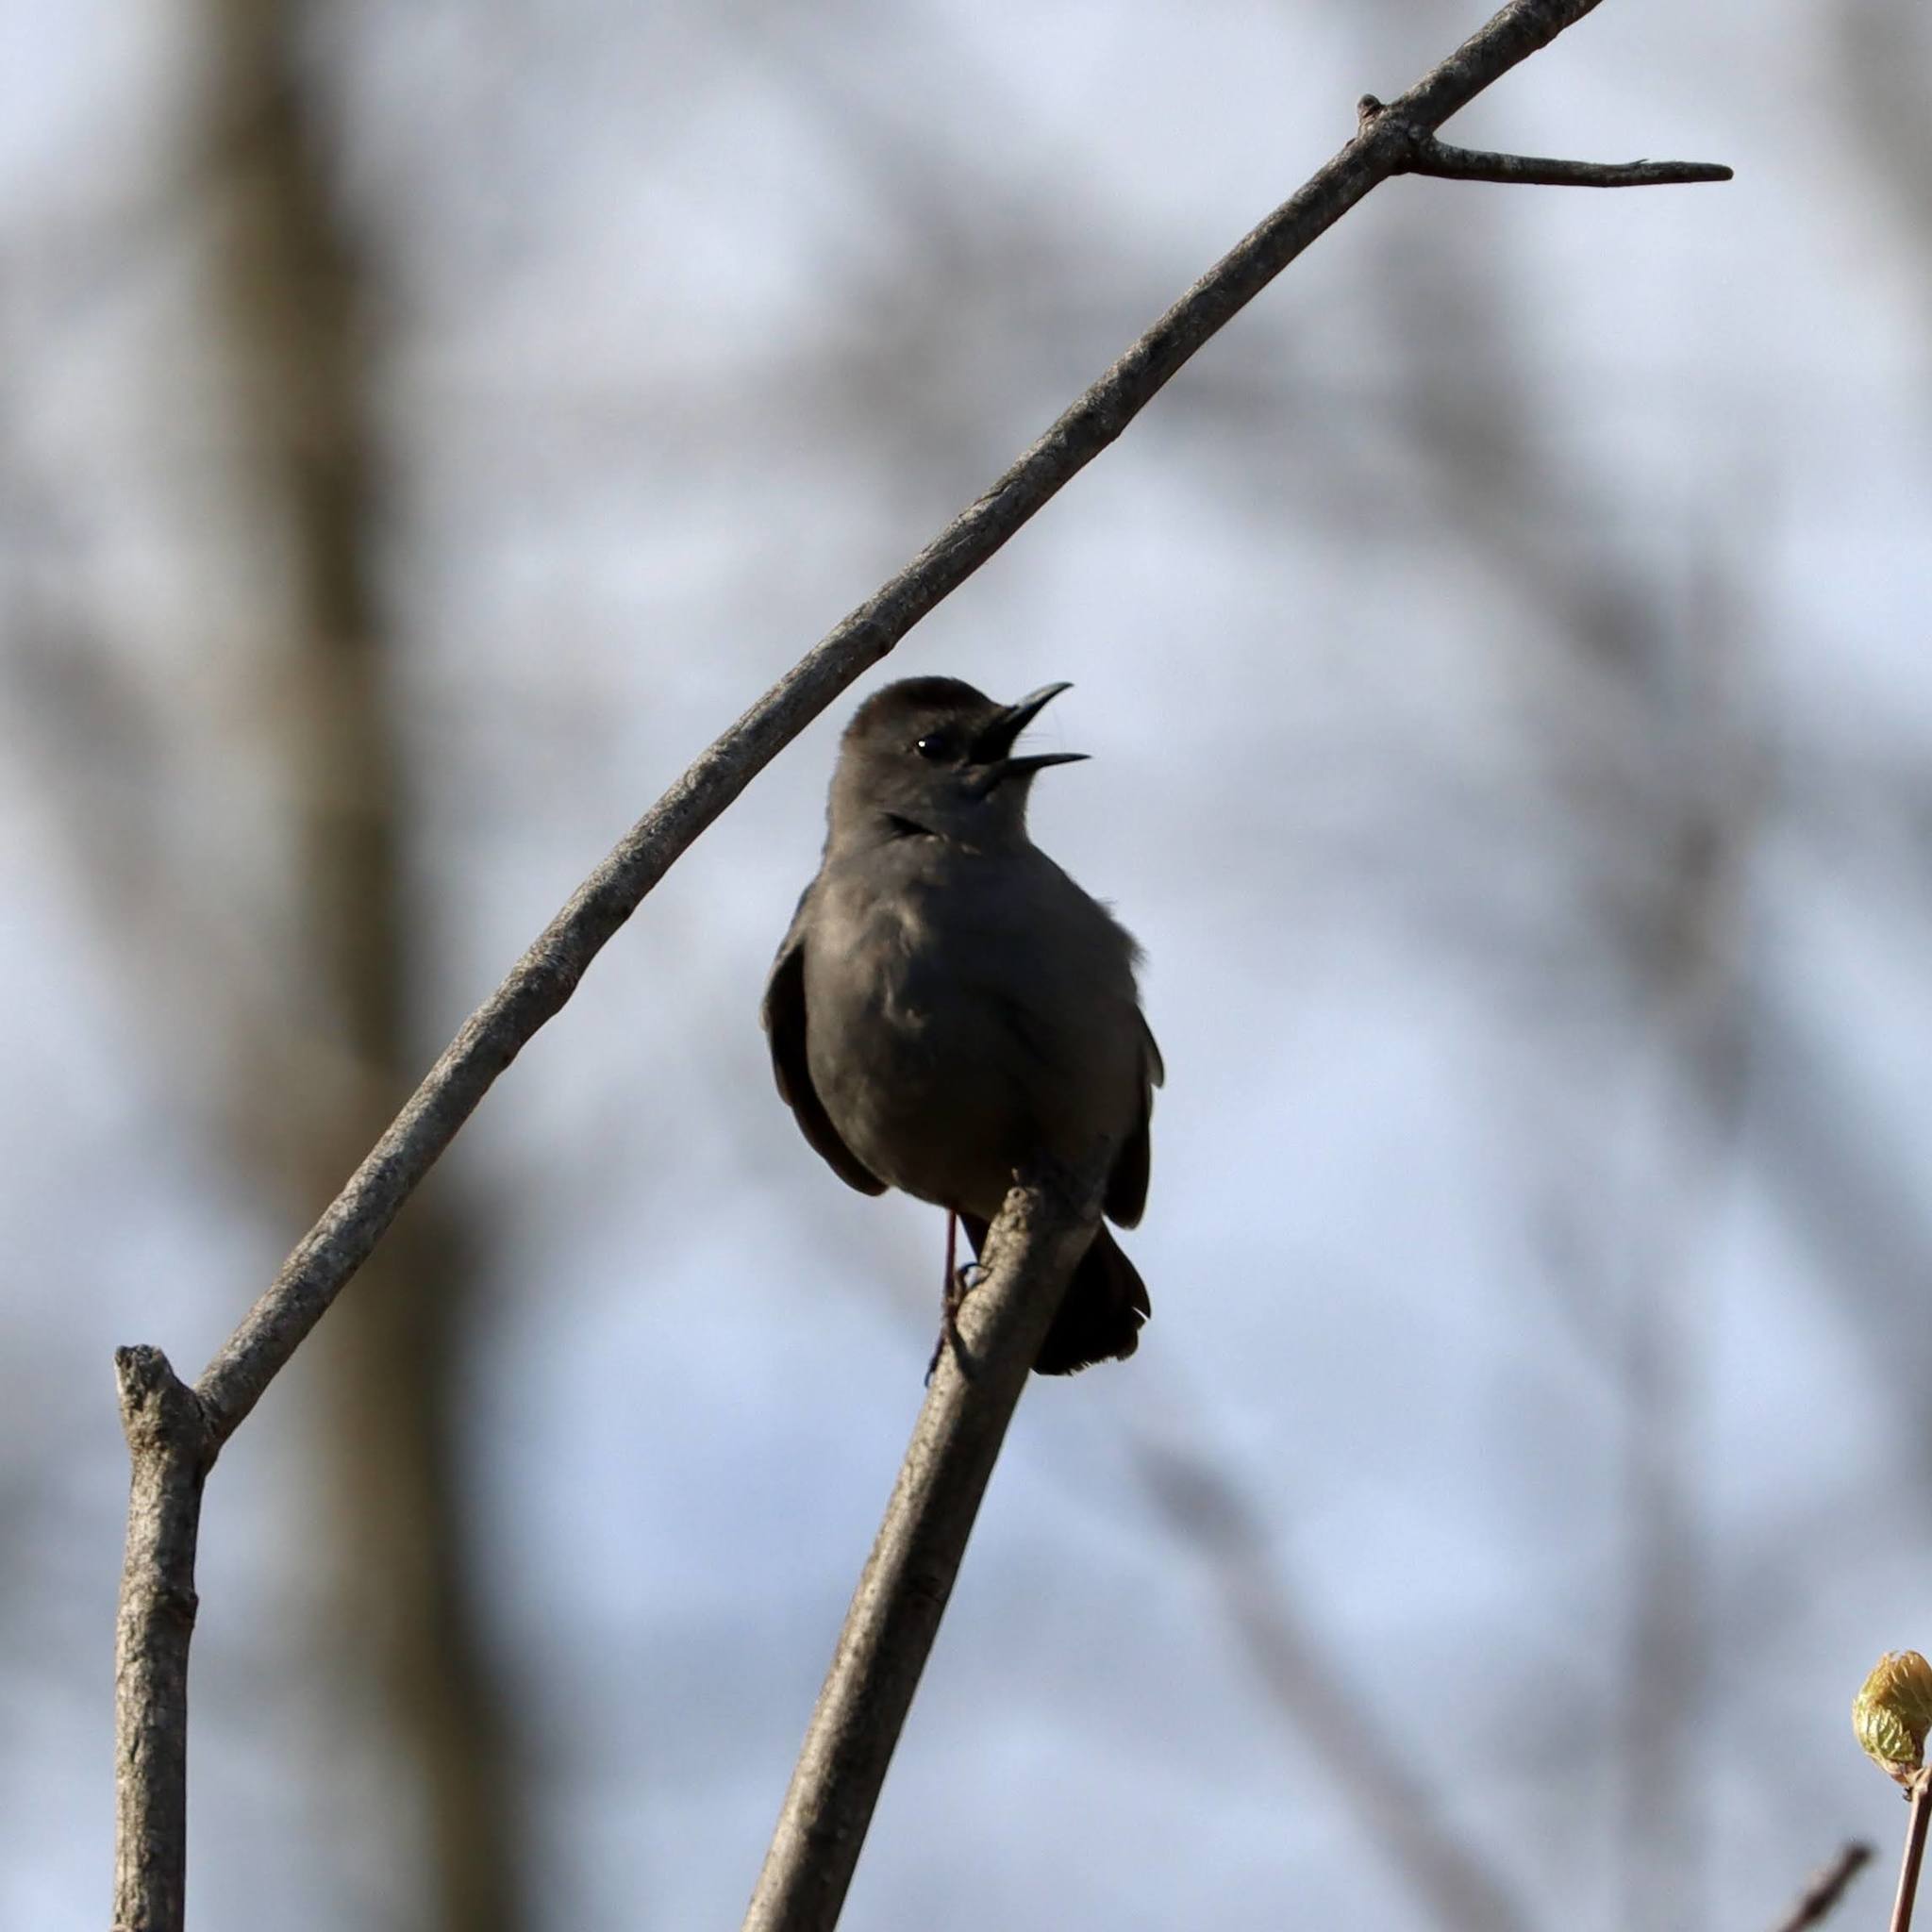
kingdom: Animalia
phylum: Chordata
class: Aves
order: Passeriformes
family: Mimidae
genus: Dumetella
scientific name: Dumetella carolinensis
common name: Gray catbird
